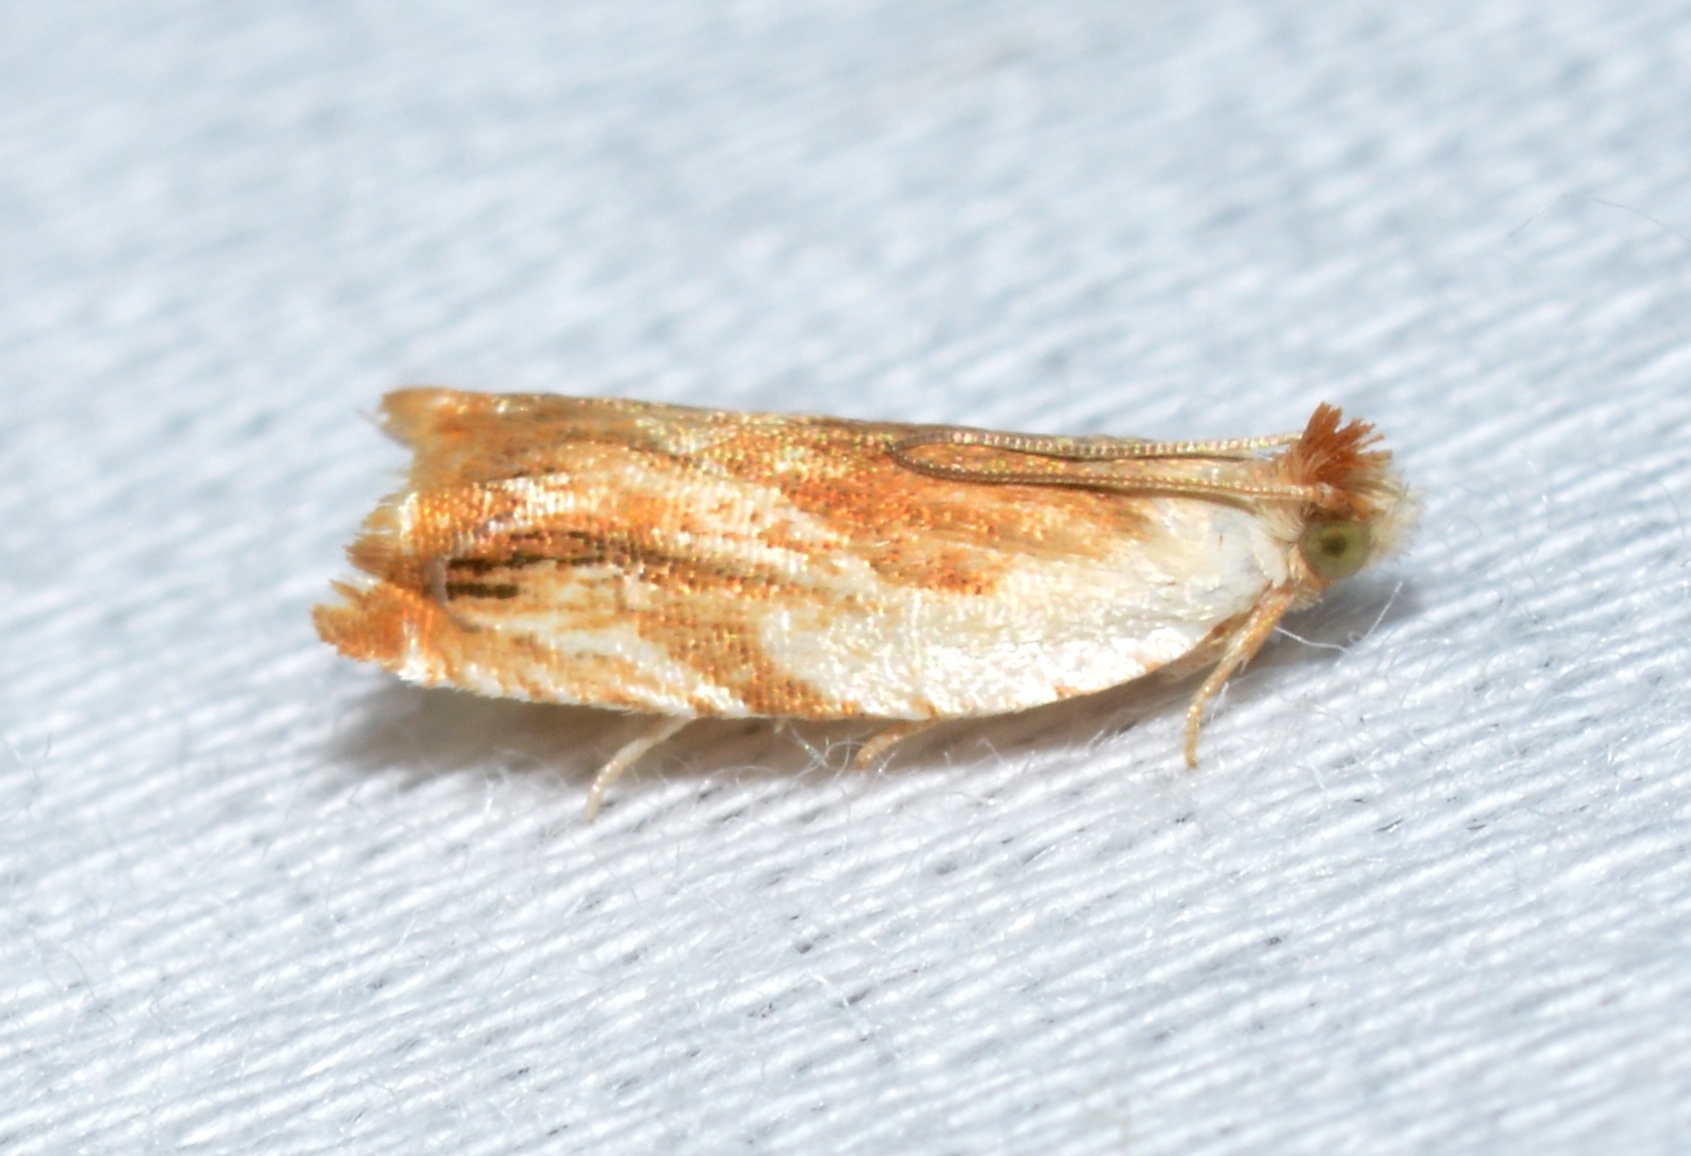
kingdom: Animalia
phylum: Arthropoda
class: Insecta
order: Lepidoptera
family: Tortricidae
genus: Ancylis
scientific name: Ancylis platanana
